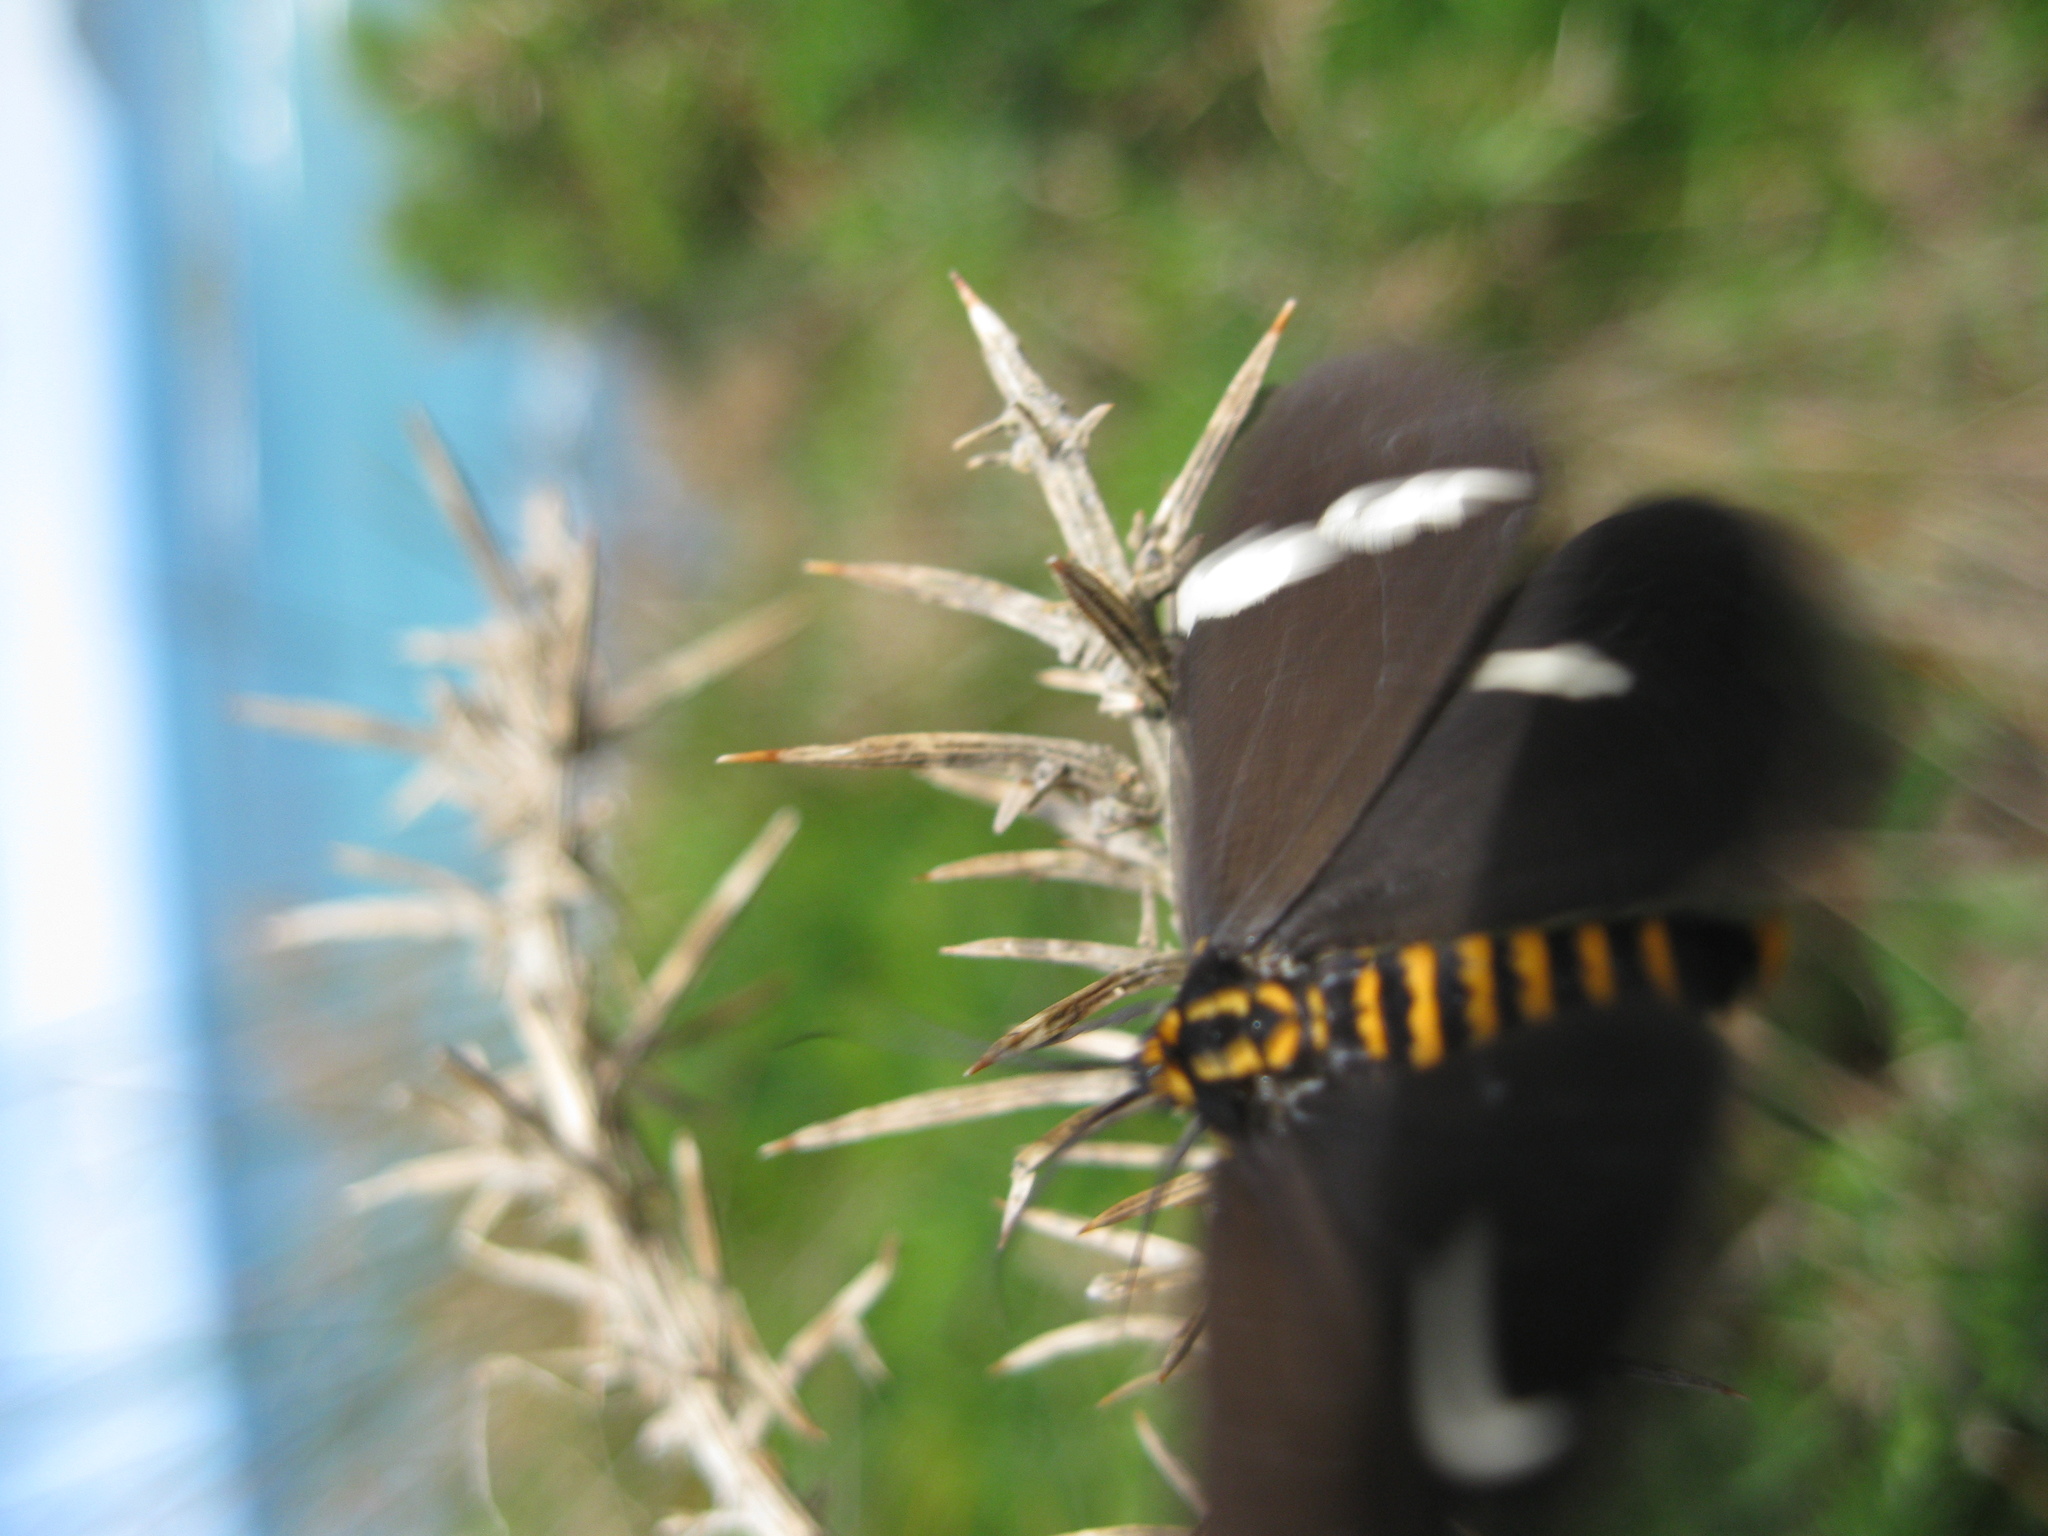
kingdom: Animalia
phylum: Arthropoda
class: Insecta
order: Lepidoptera
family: Erebidae
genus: Nyctemera
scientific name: Nyctemera annulatum
